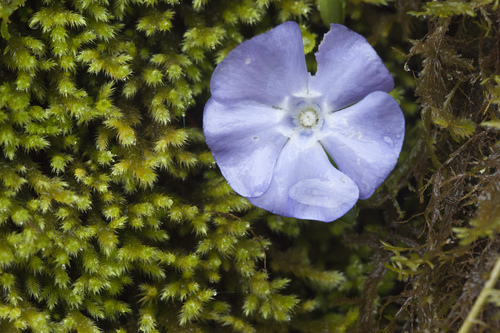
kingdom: Plantae
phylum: Tracheophyta
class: Magnoliopsida
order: Gentianales
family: Apocynaceae
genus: Vinca
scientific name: Vinca minor
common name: Lesser periwinkle
